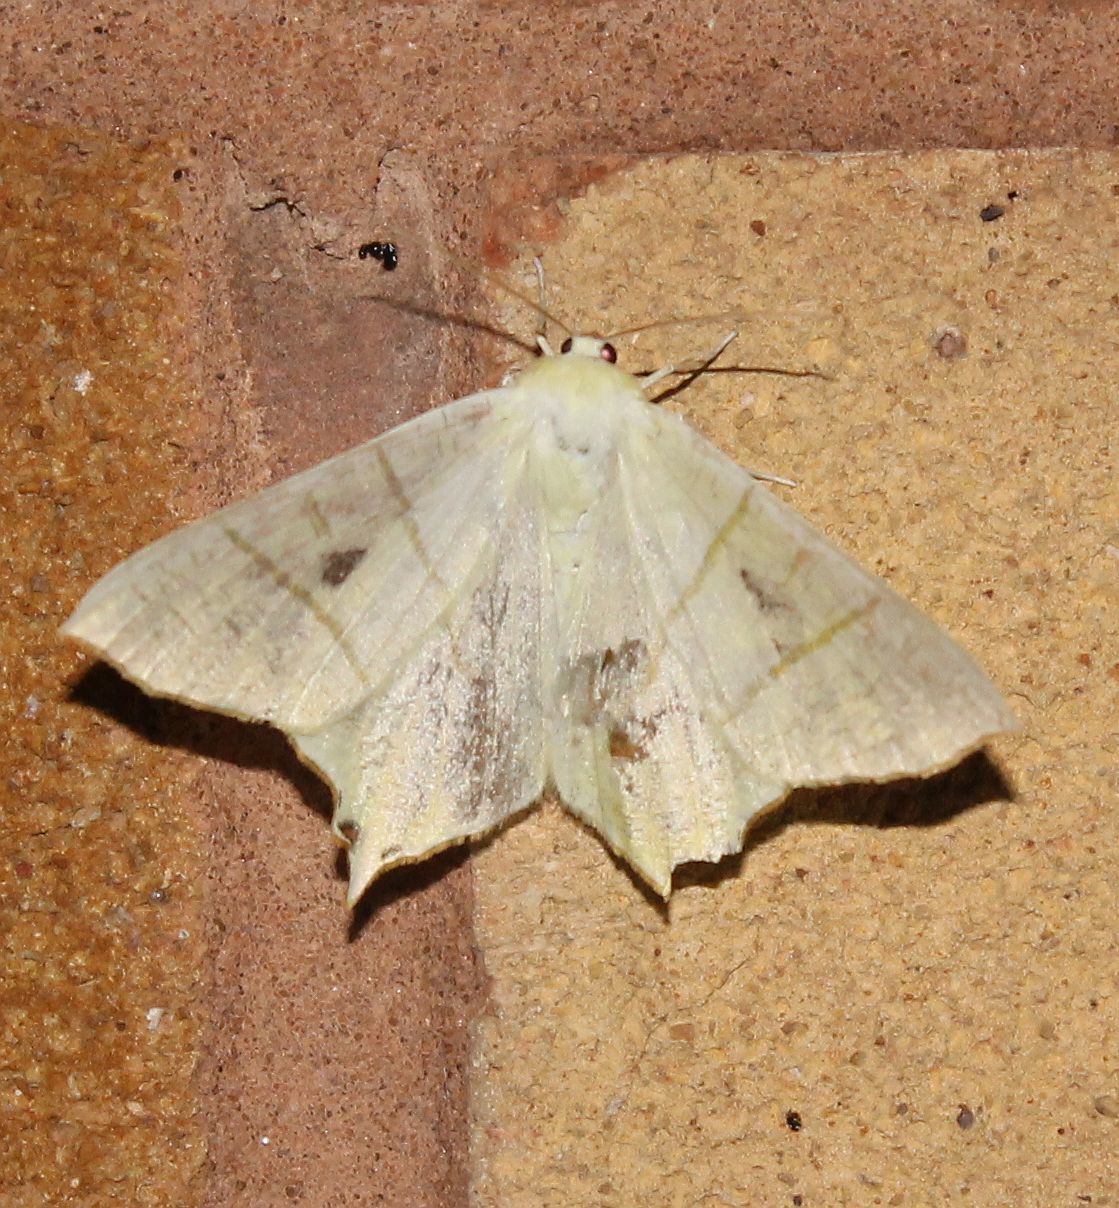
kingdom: Animalia
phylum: Arthropoda
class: Insecta
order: Lepidoptera
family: Geometridae
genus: Ourapteryx
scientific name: Ourapteryx sambucaria
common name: Swallow-tailed moth
